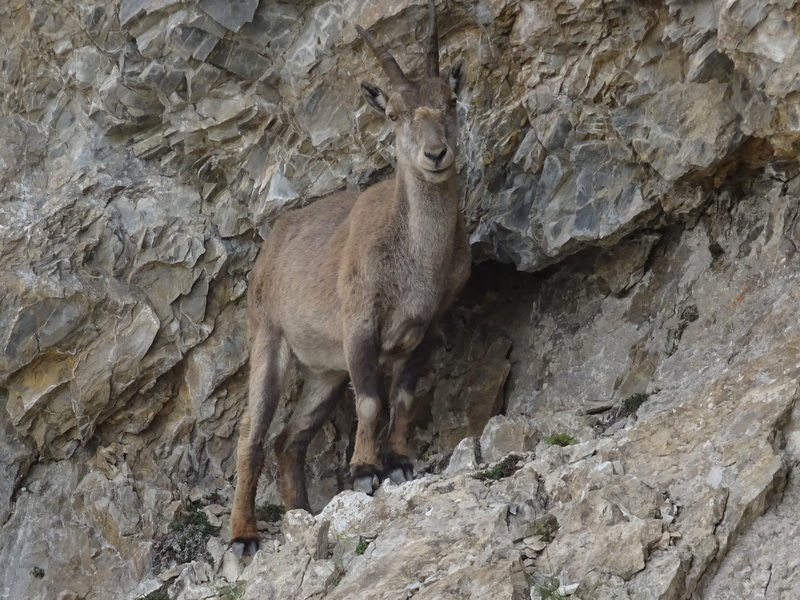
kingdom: Animalia
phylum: Chordata
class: Mammalia
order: Artiodactyla
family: Bovidae
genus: Capra
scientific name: Capra ibex
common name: Alpine ibex
